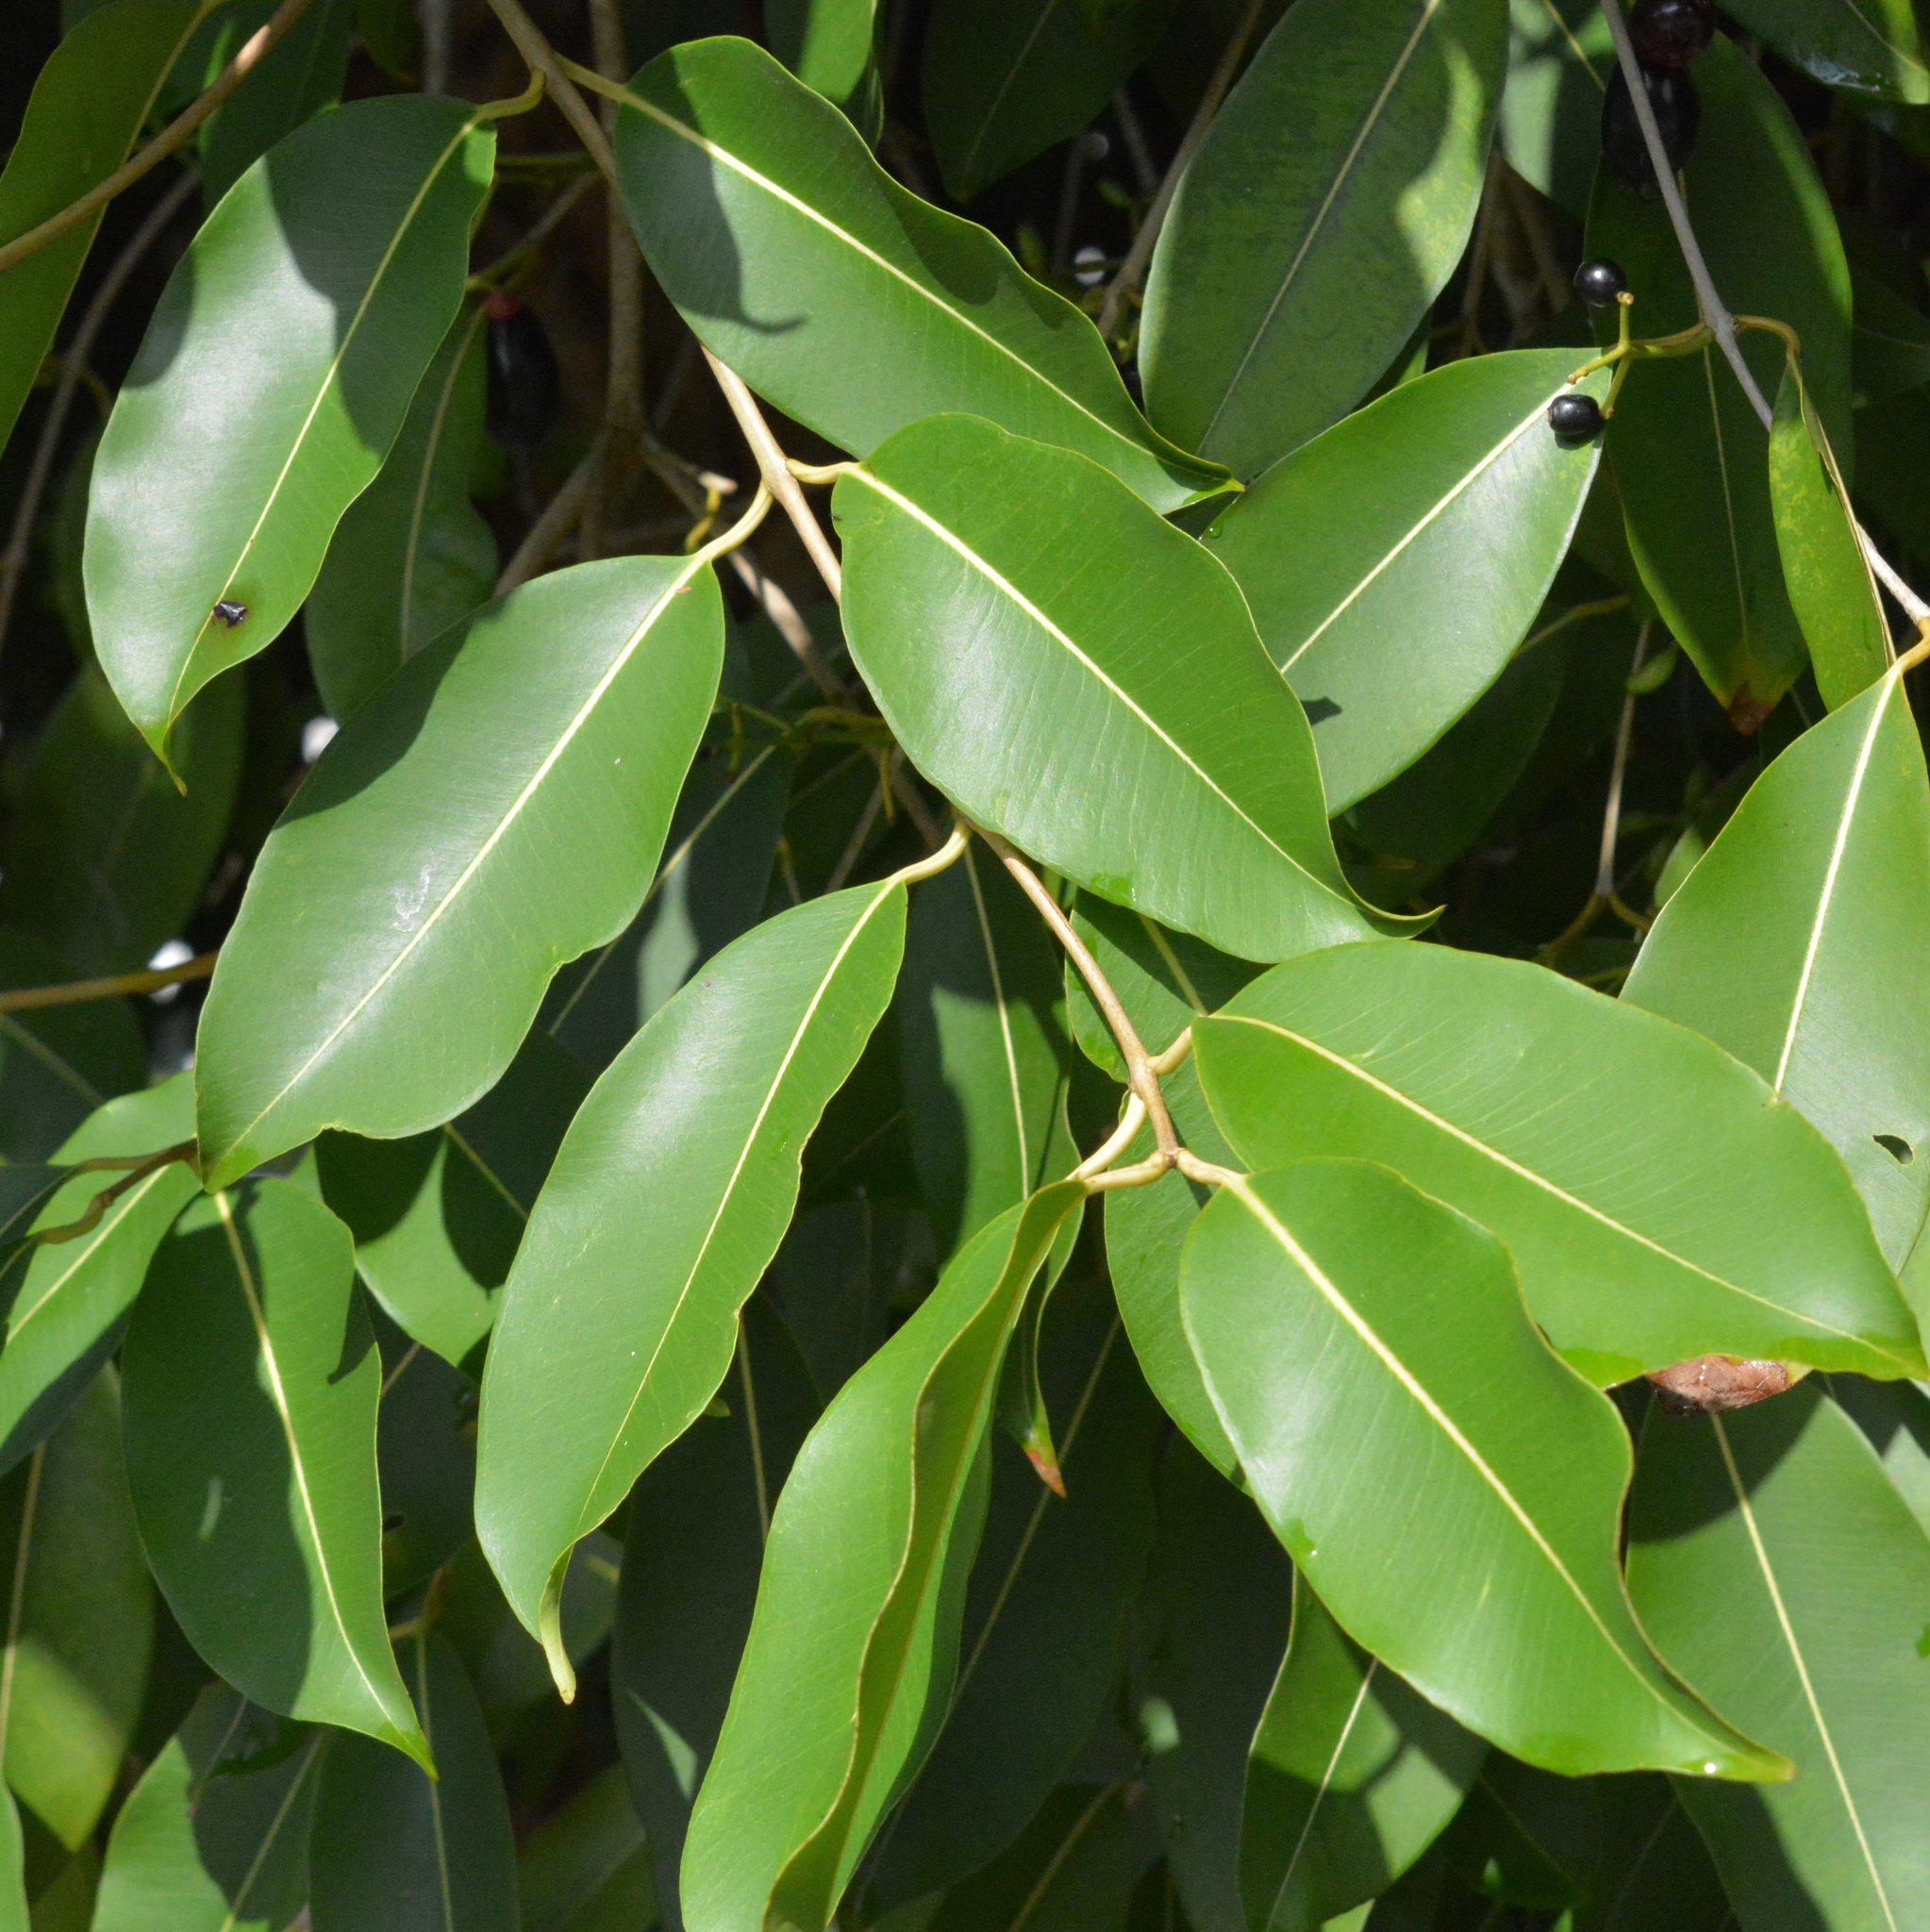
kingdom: Plantae
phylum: Tracheophyta
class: Magnoliopsida
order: Myrtales
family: Myrtaceae
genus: Syzygium
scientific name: Syzygium cumini
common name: Java plum
